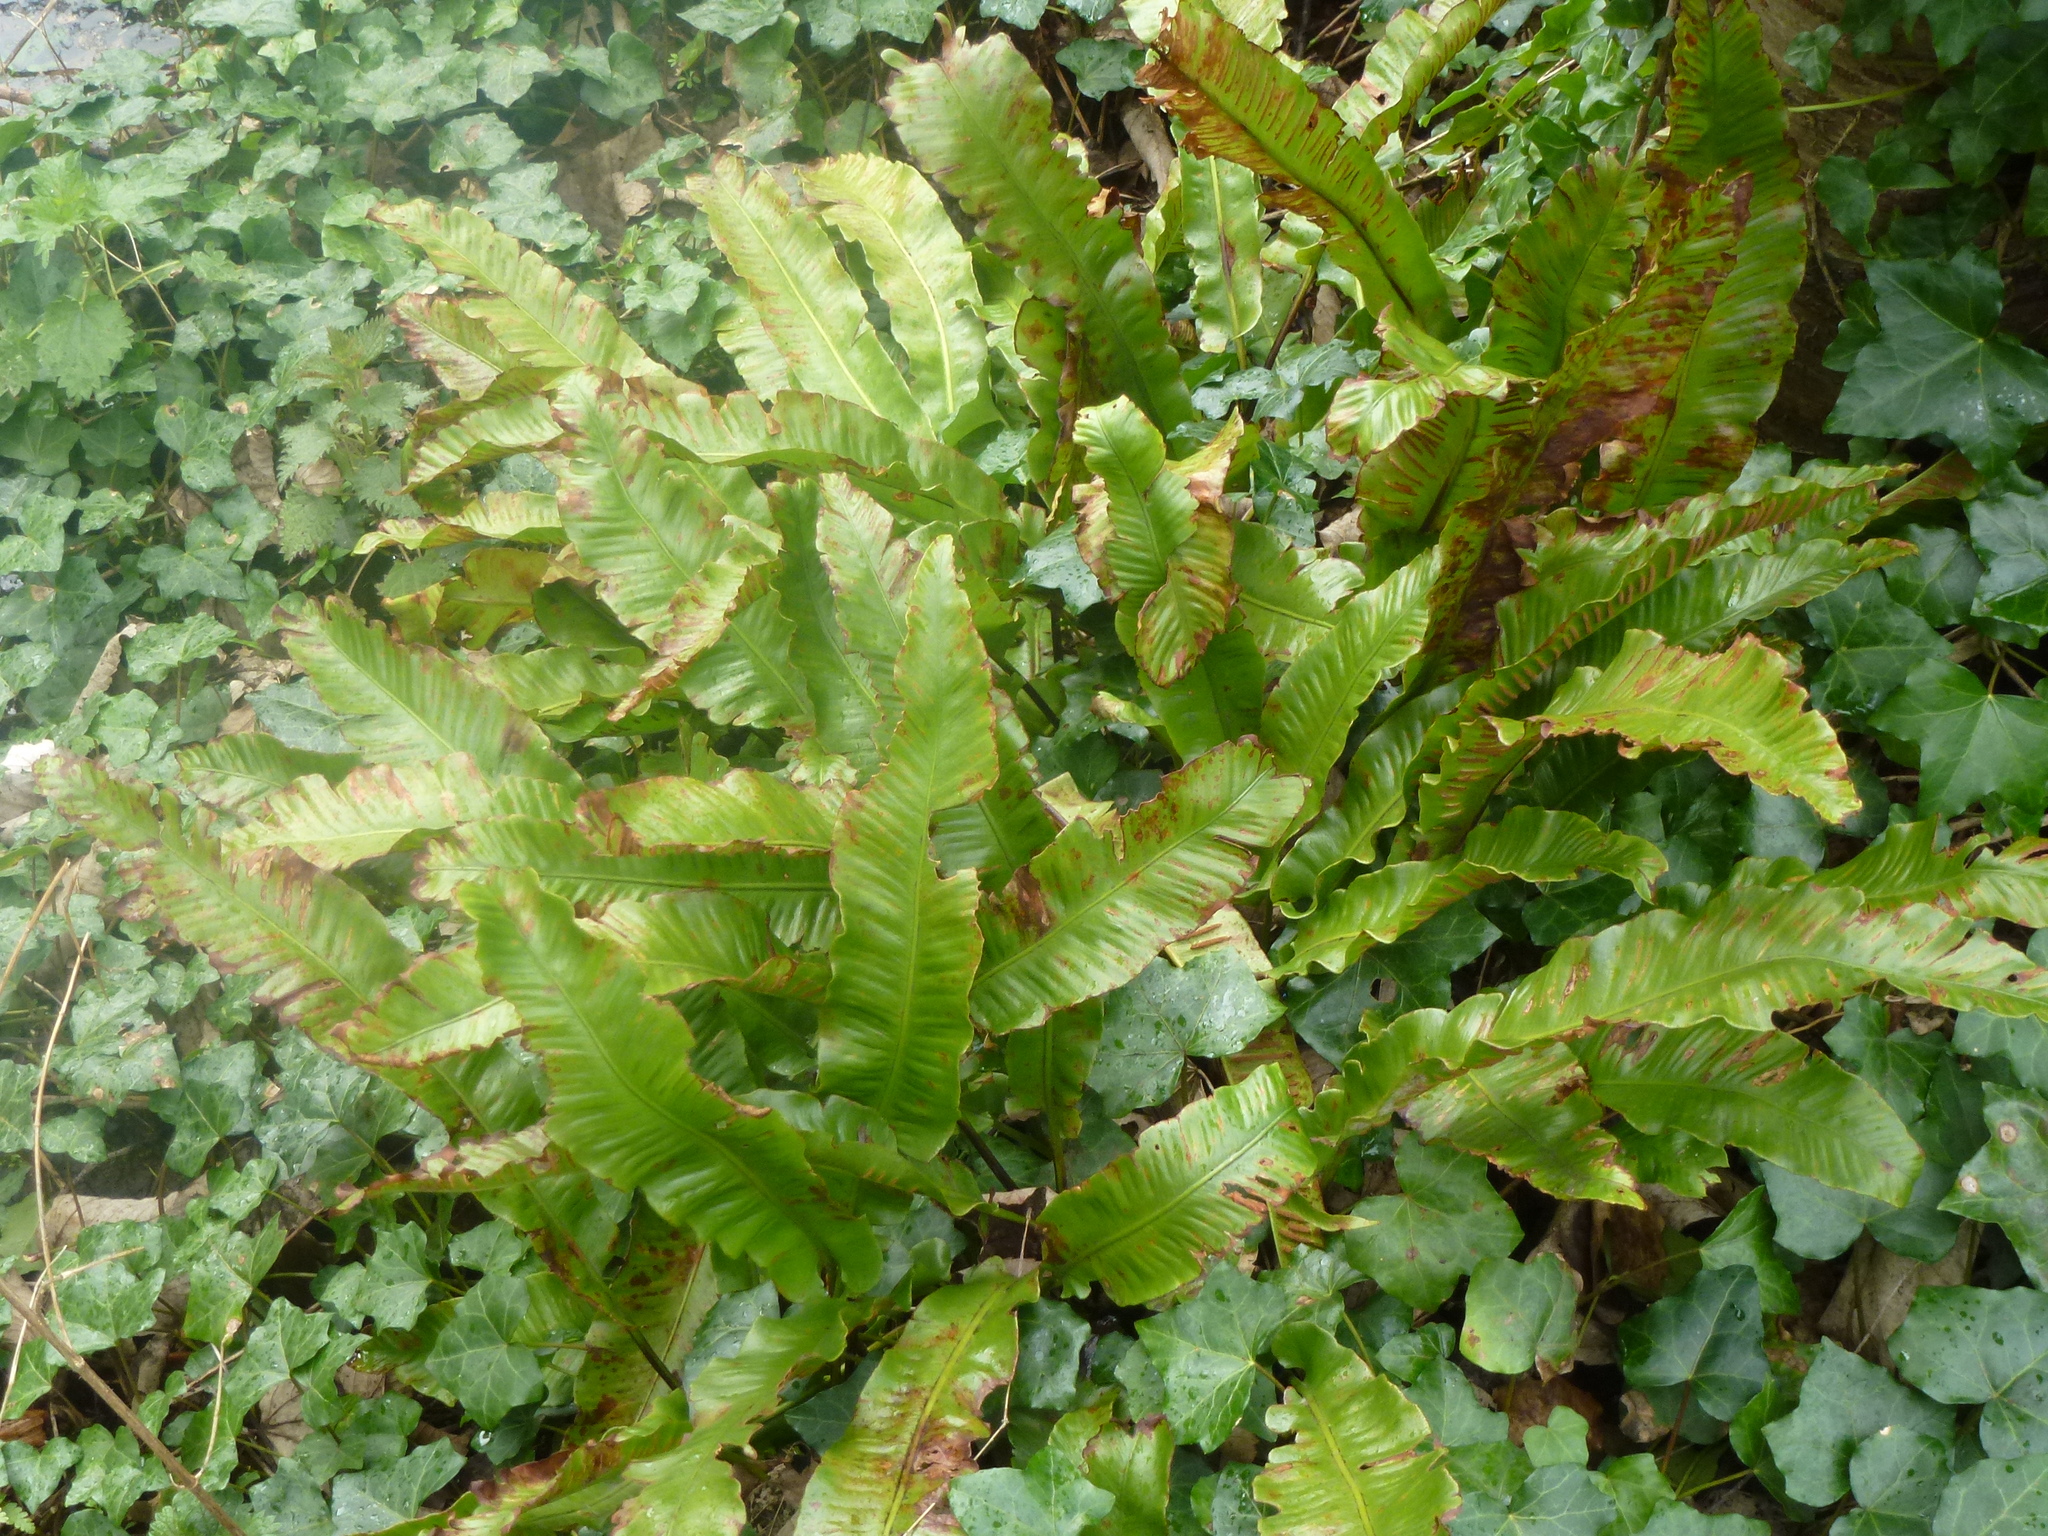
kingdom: Plantae
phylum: Tracheophyta
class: Polypodiopsida
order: Polypodiales
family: Aspleniaceae
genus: Asplenium
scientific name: Asplenium scolopendrium
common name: Hart's-tongue fern
